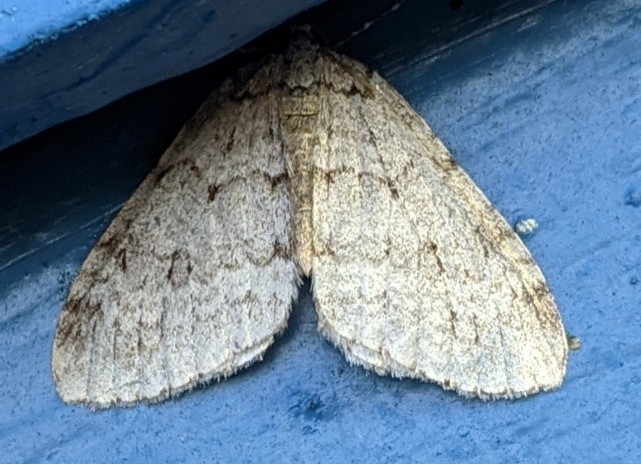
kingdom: Animalia
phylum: Arthropoda
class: Insecta
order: Lepidoptera
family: Geometridae
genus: Epirrita
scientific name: Epirrita autumnata
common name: Autumnal moth
